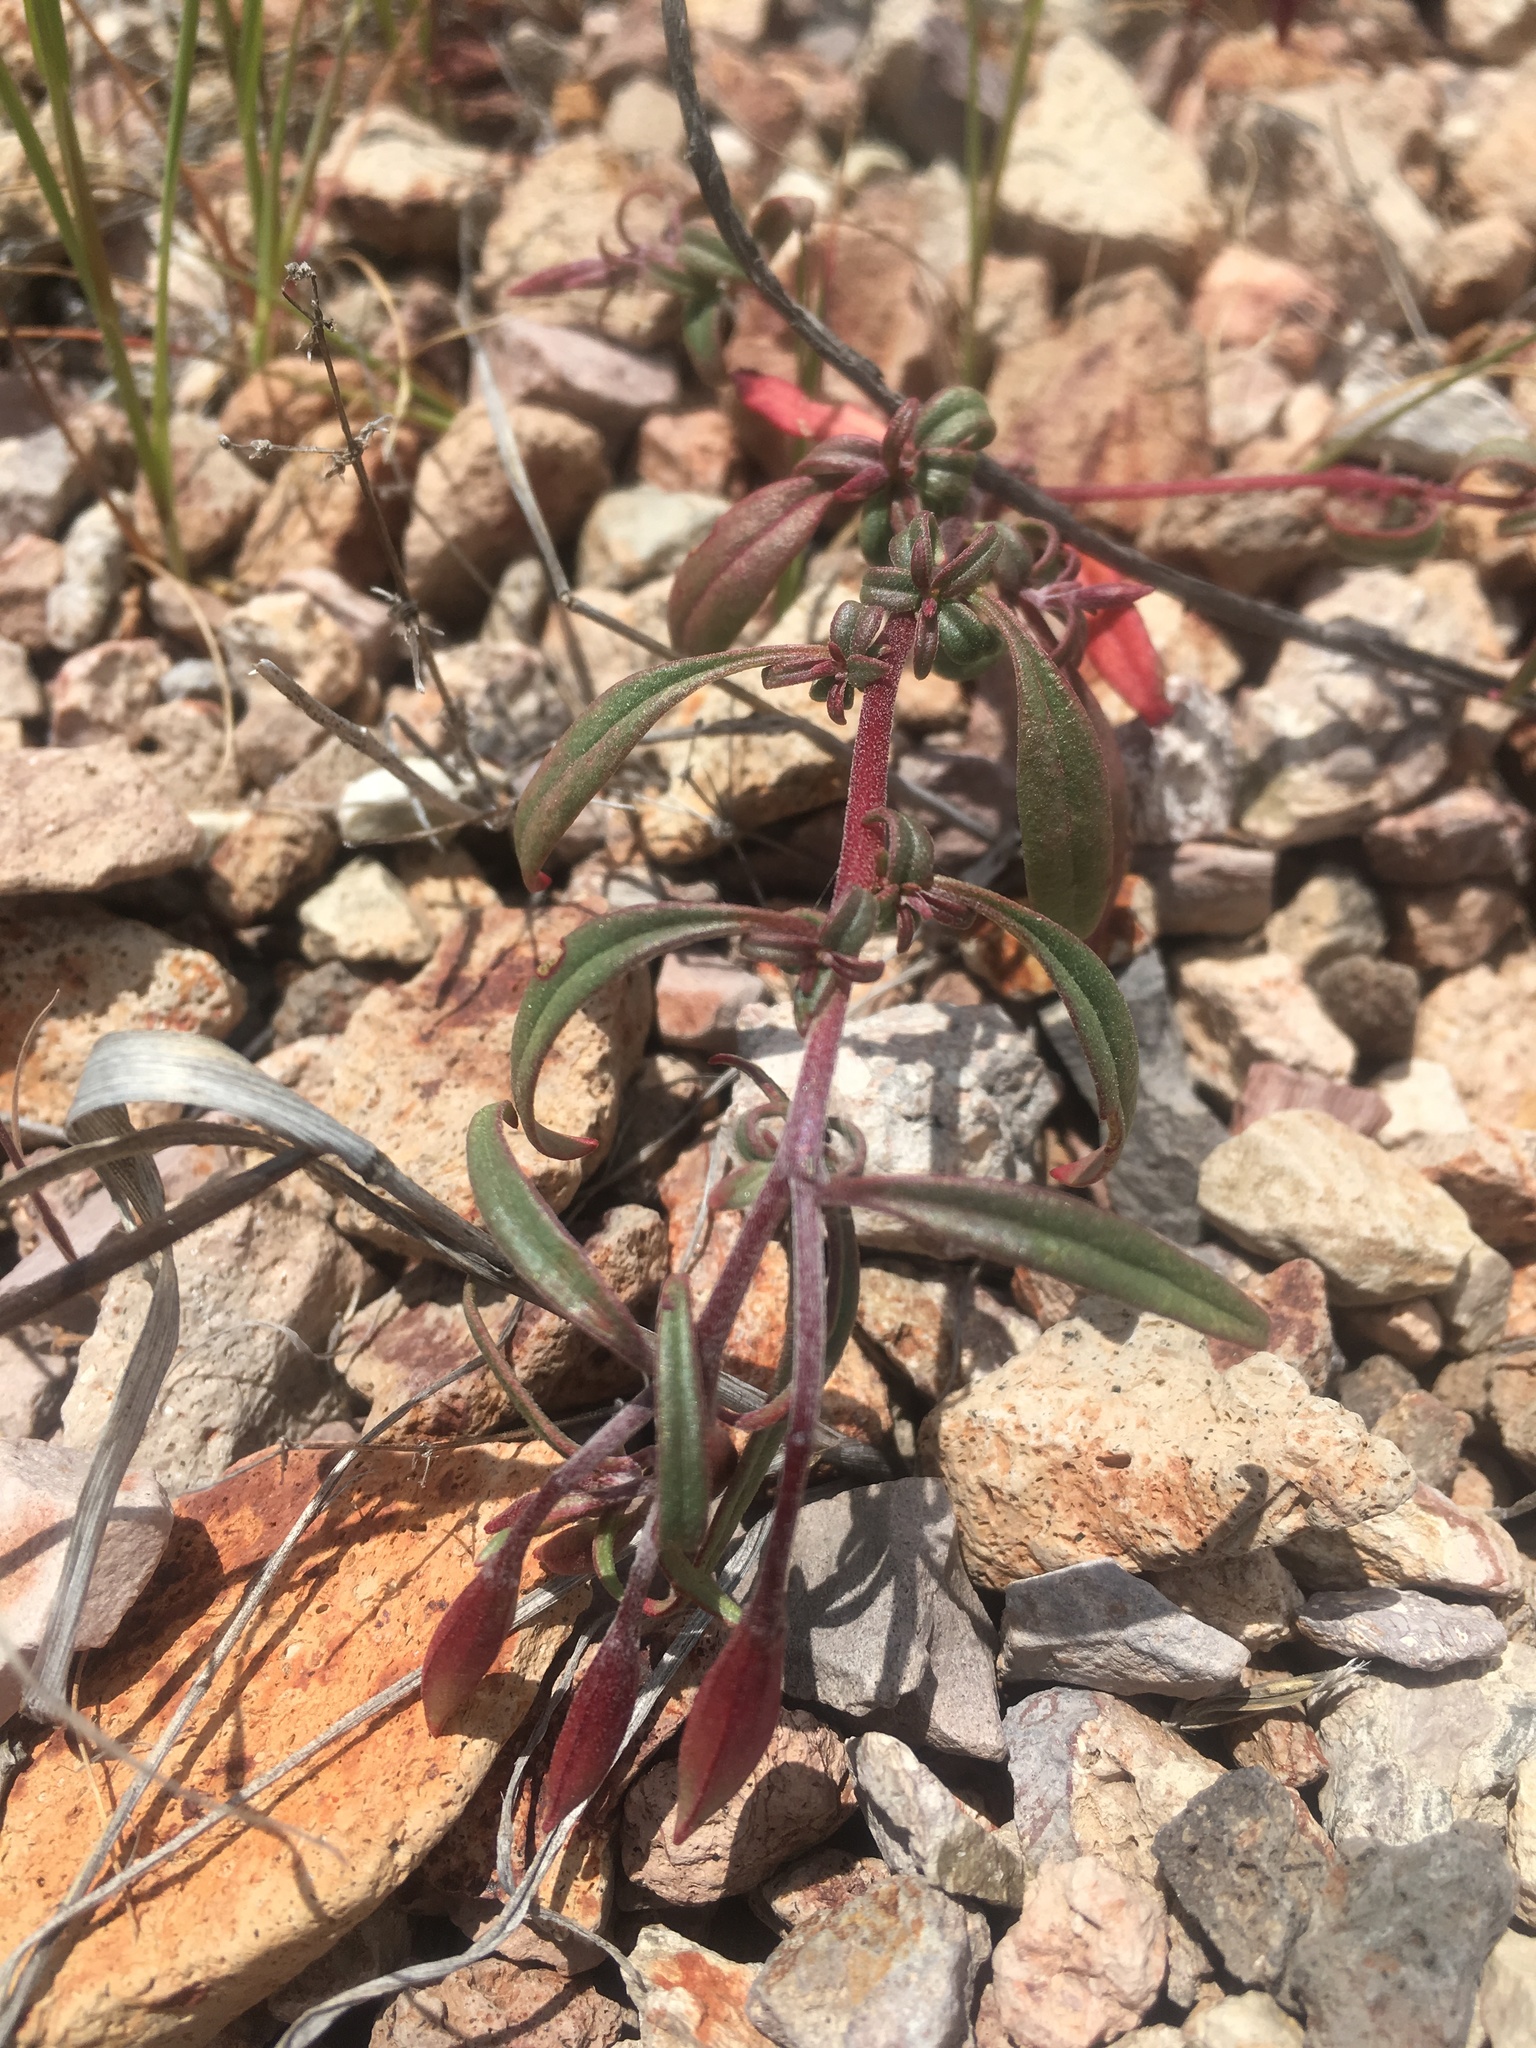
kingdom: Plantae
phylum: Tracheophyta
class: Magnoliopsida
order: Myrtales
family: Onagraceae
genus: Clarkia
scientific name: Clarkia breweri
